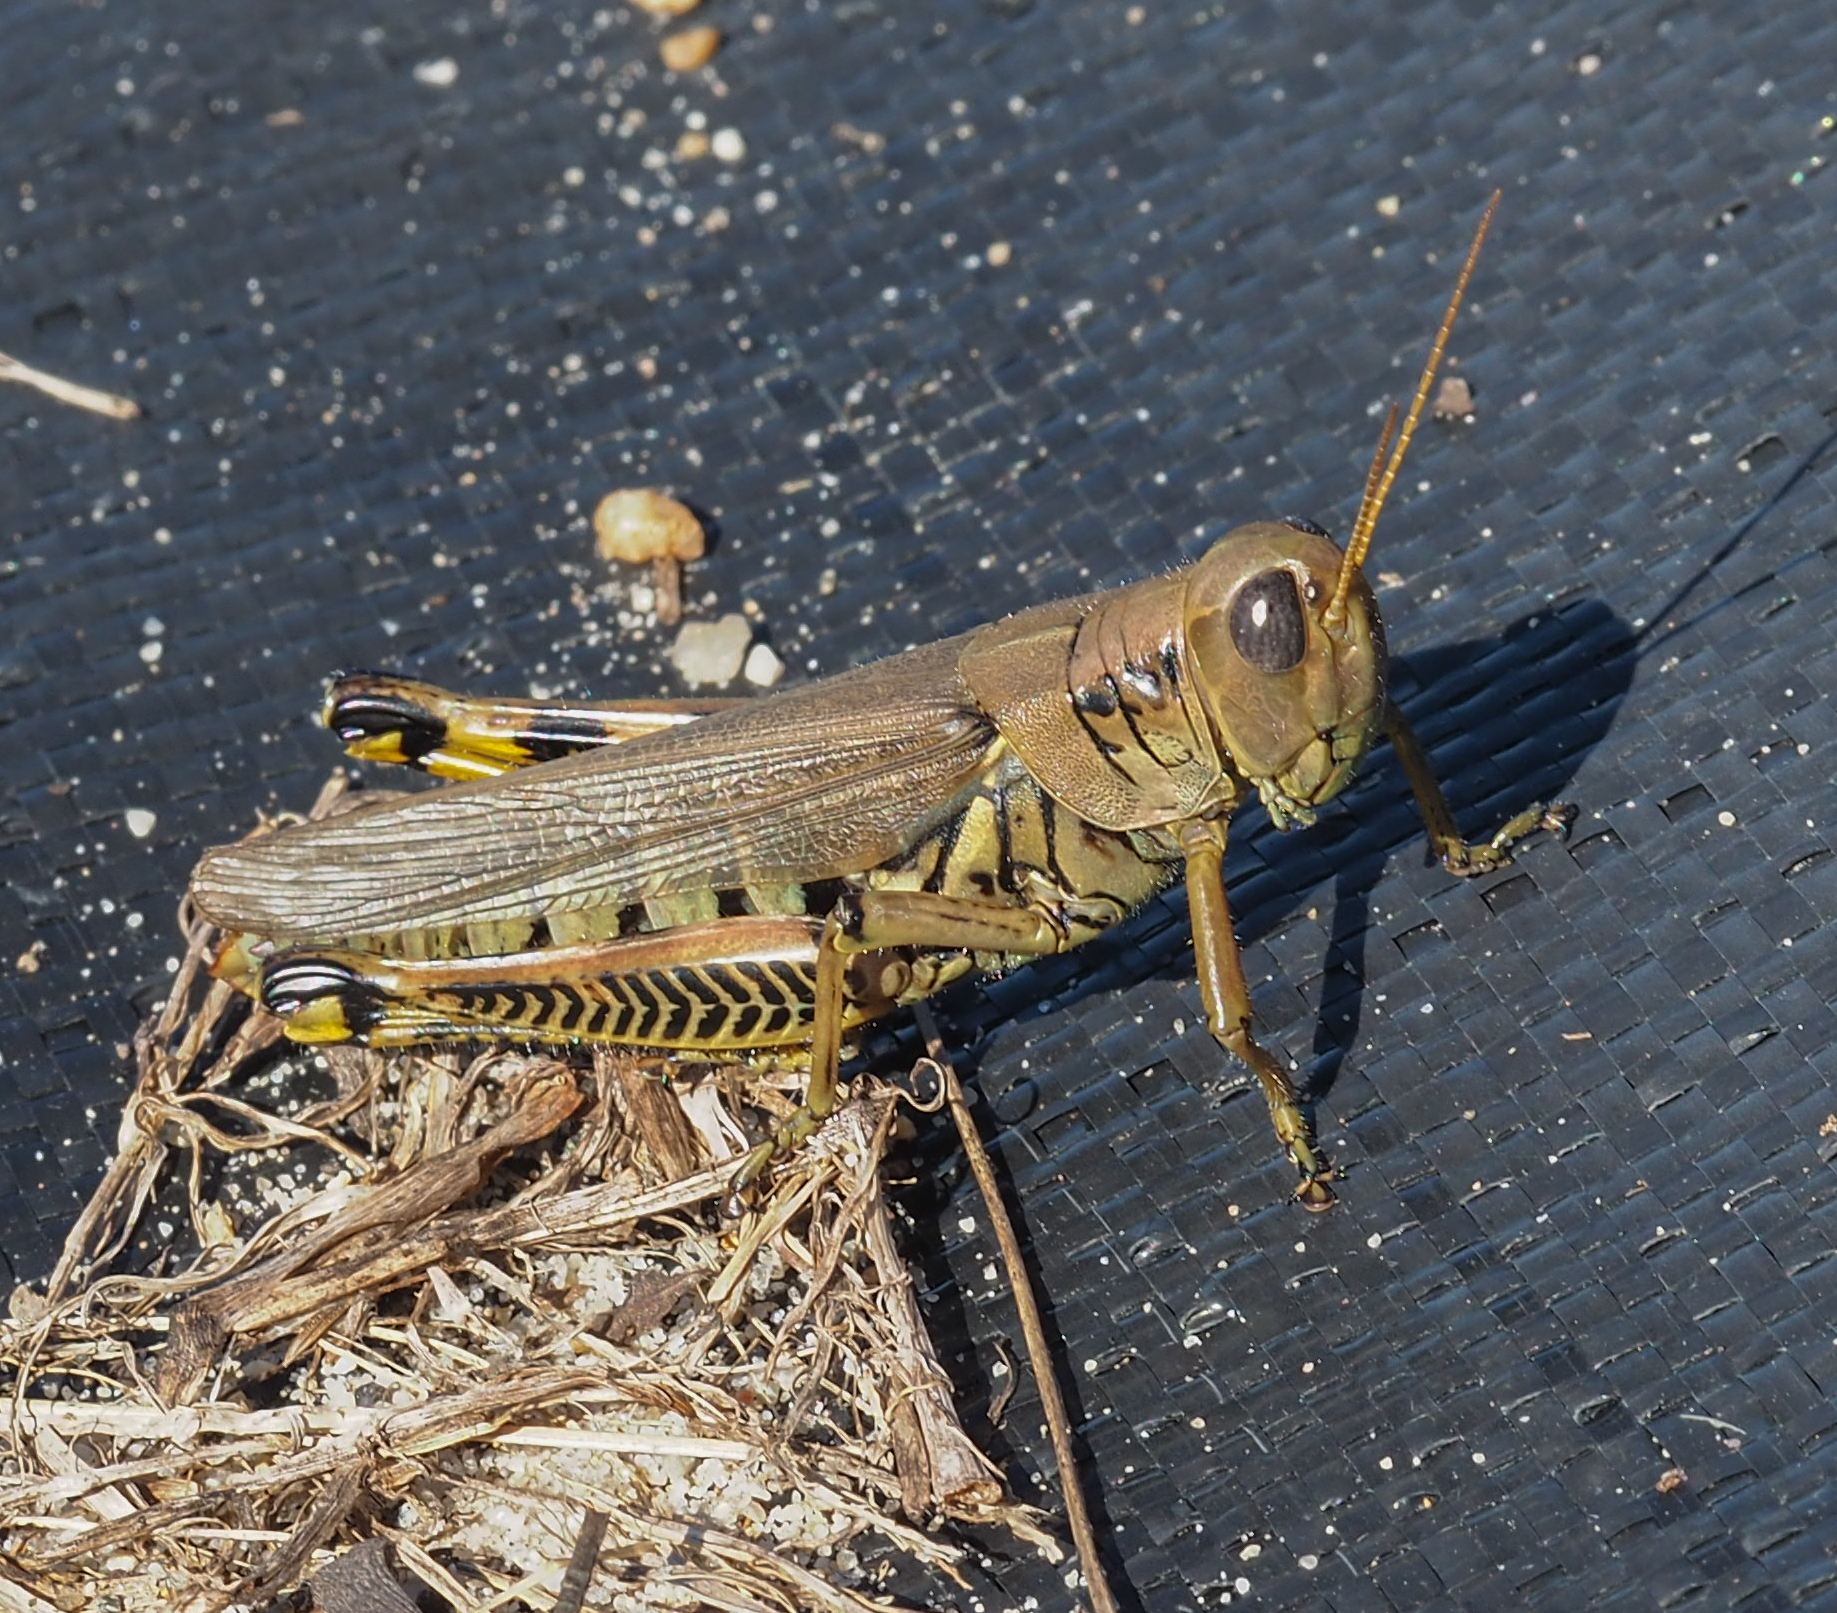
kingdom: Animalia
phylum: Arthropoda
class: Insecta
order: Orthoptera
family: Acrididae
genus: Melanoplus
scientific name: Melanoplus differentialis
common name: Differential grasshopper
